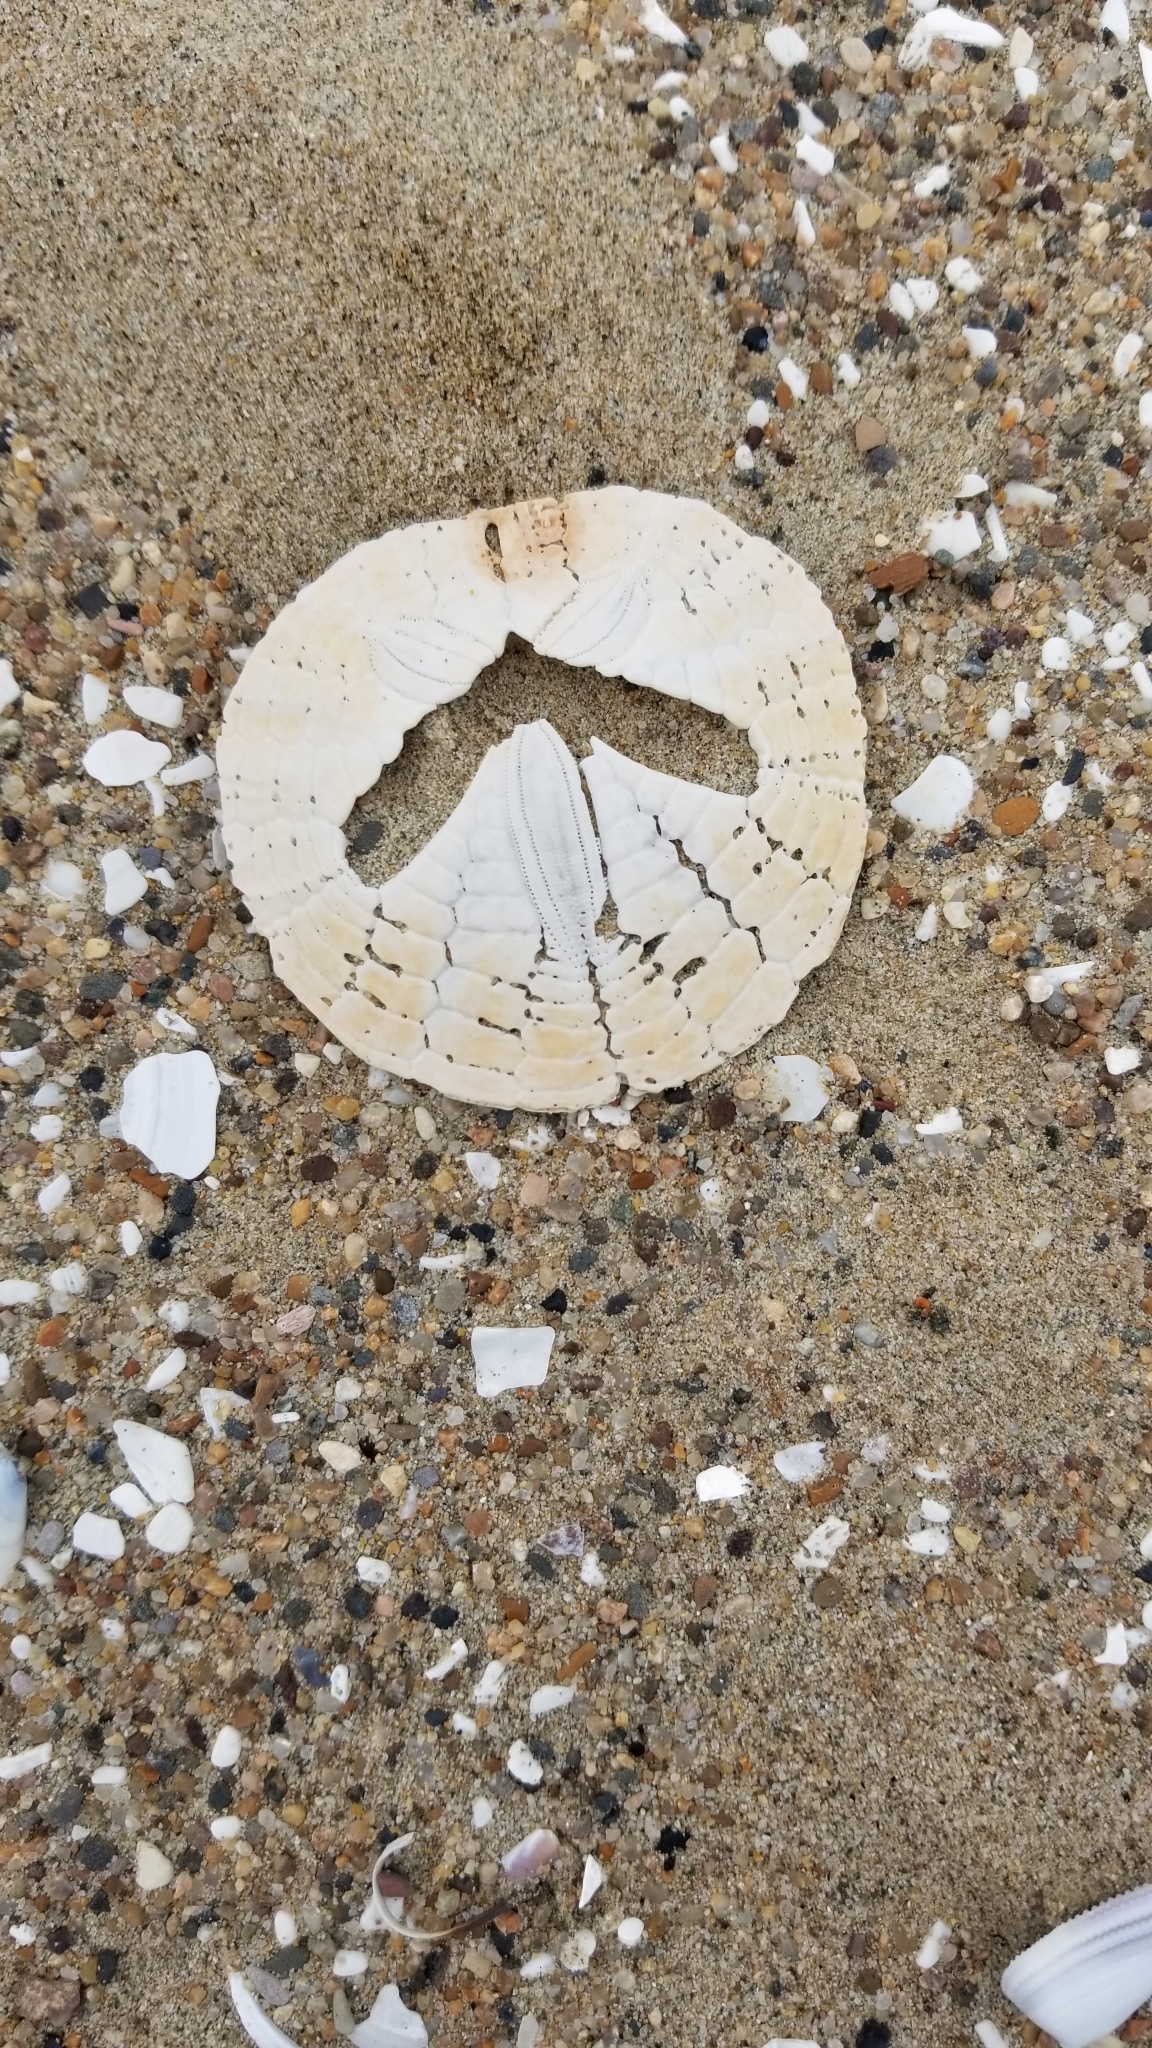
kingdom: Animalia
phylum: Echinodermata
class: Echinoidea
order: Echinolampadacea
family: Dendrasteridae
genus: Dendraster
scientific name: Dendraster excentricus
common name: Eccentric sand dollar sea urchin
